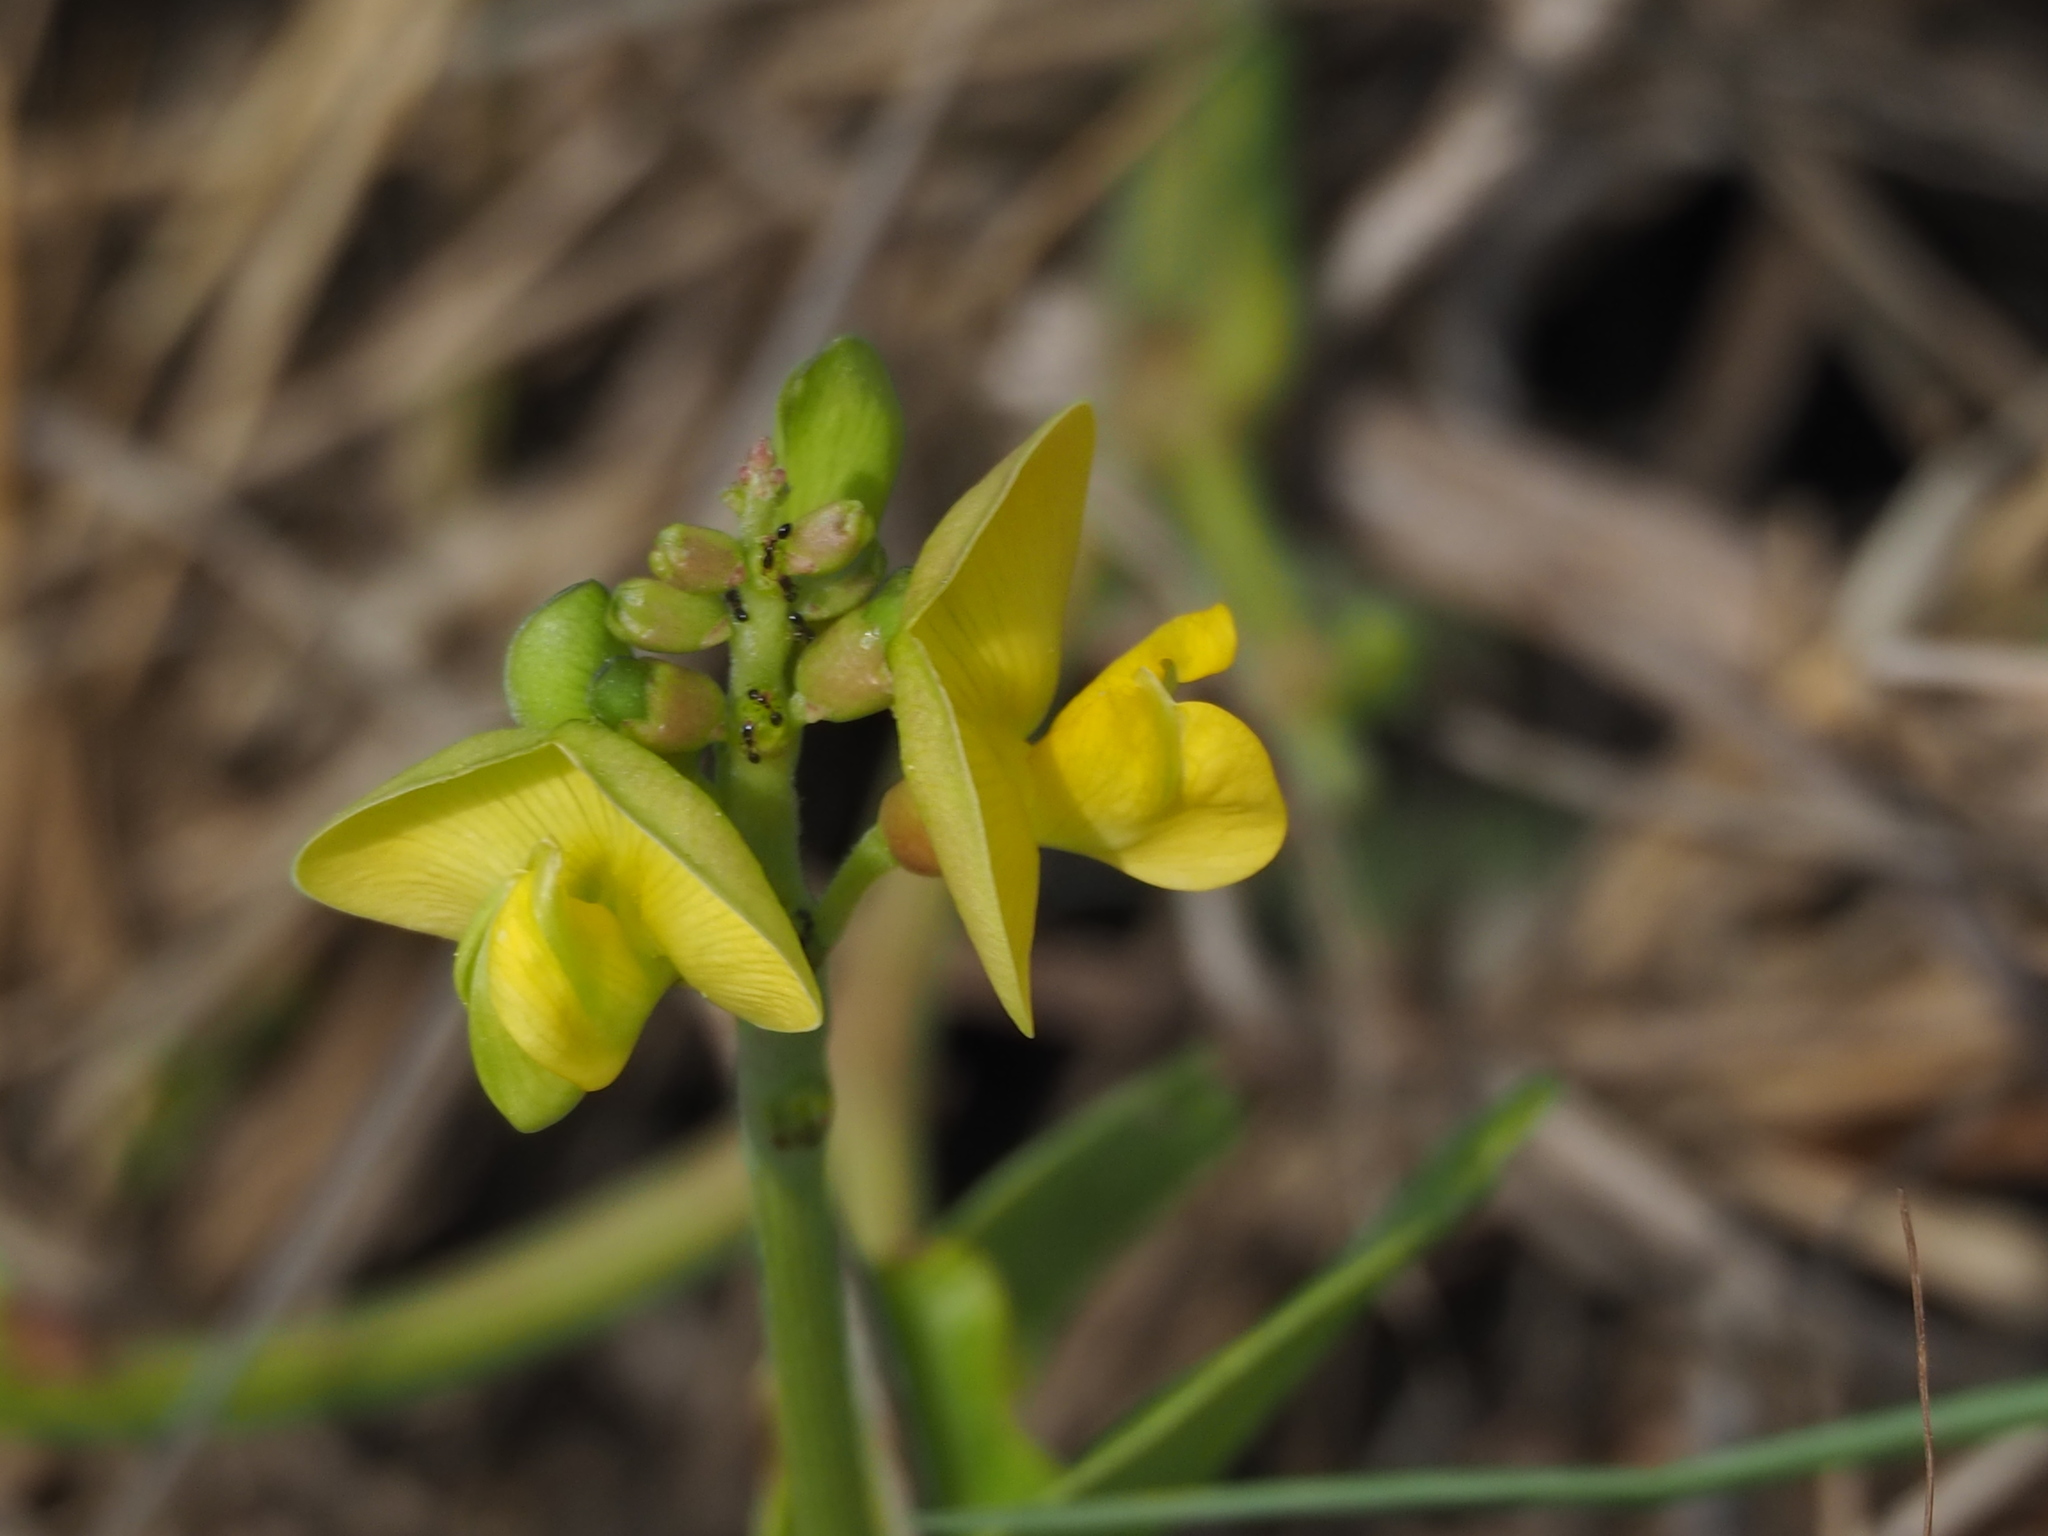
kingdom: Plantae
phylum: Tracheophyta
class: Magnoliopsida
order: Fabales
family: Fabaceae
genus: Vigna
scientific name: Vigna marina
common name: Dune-bean
